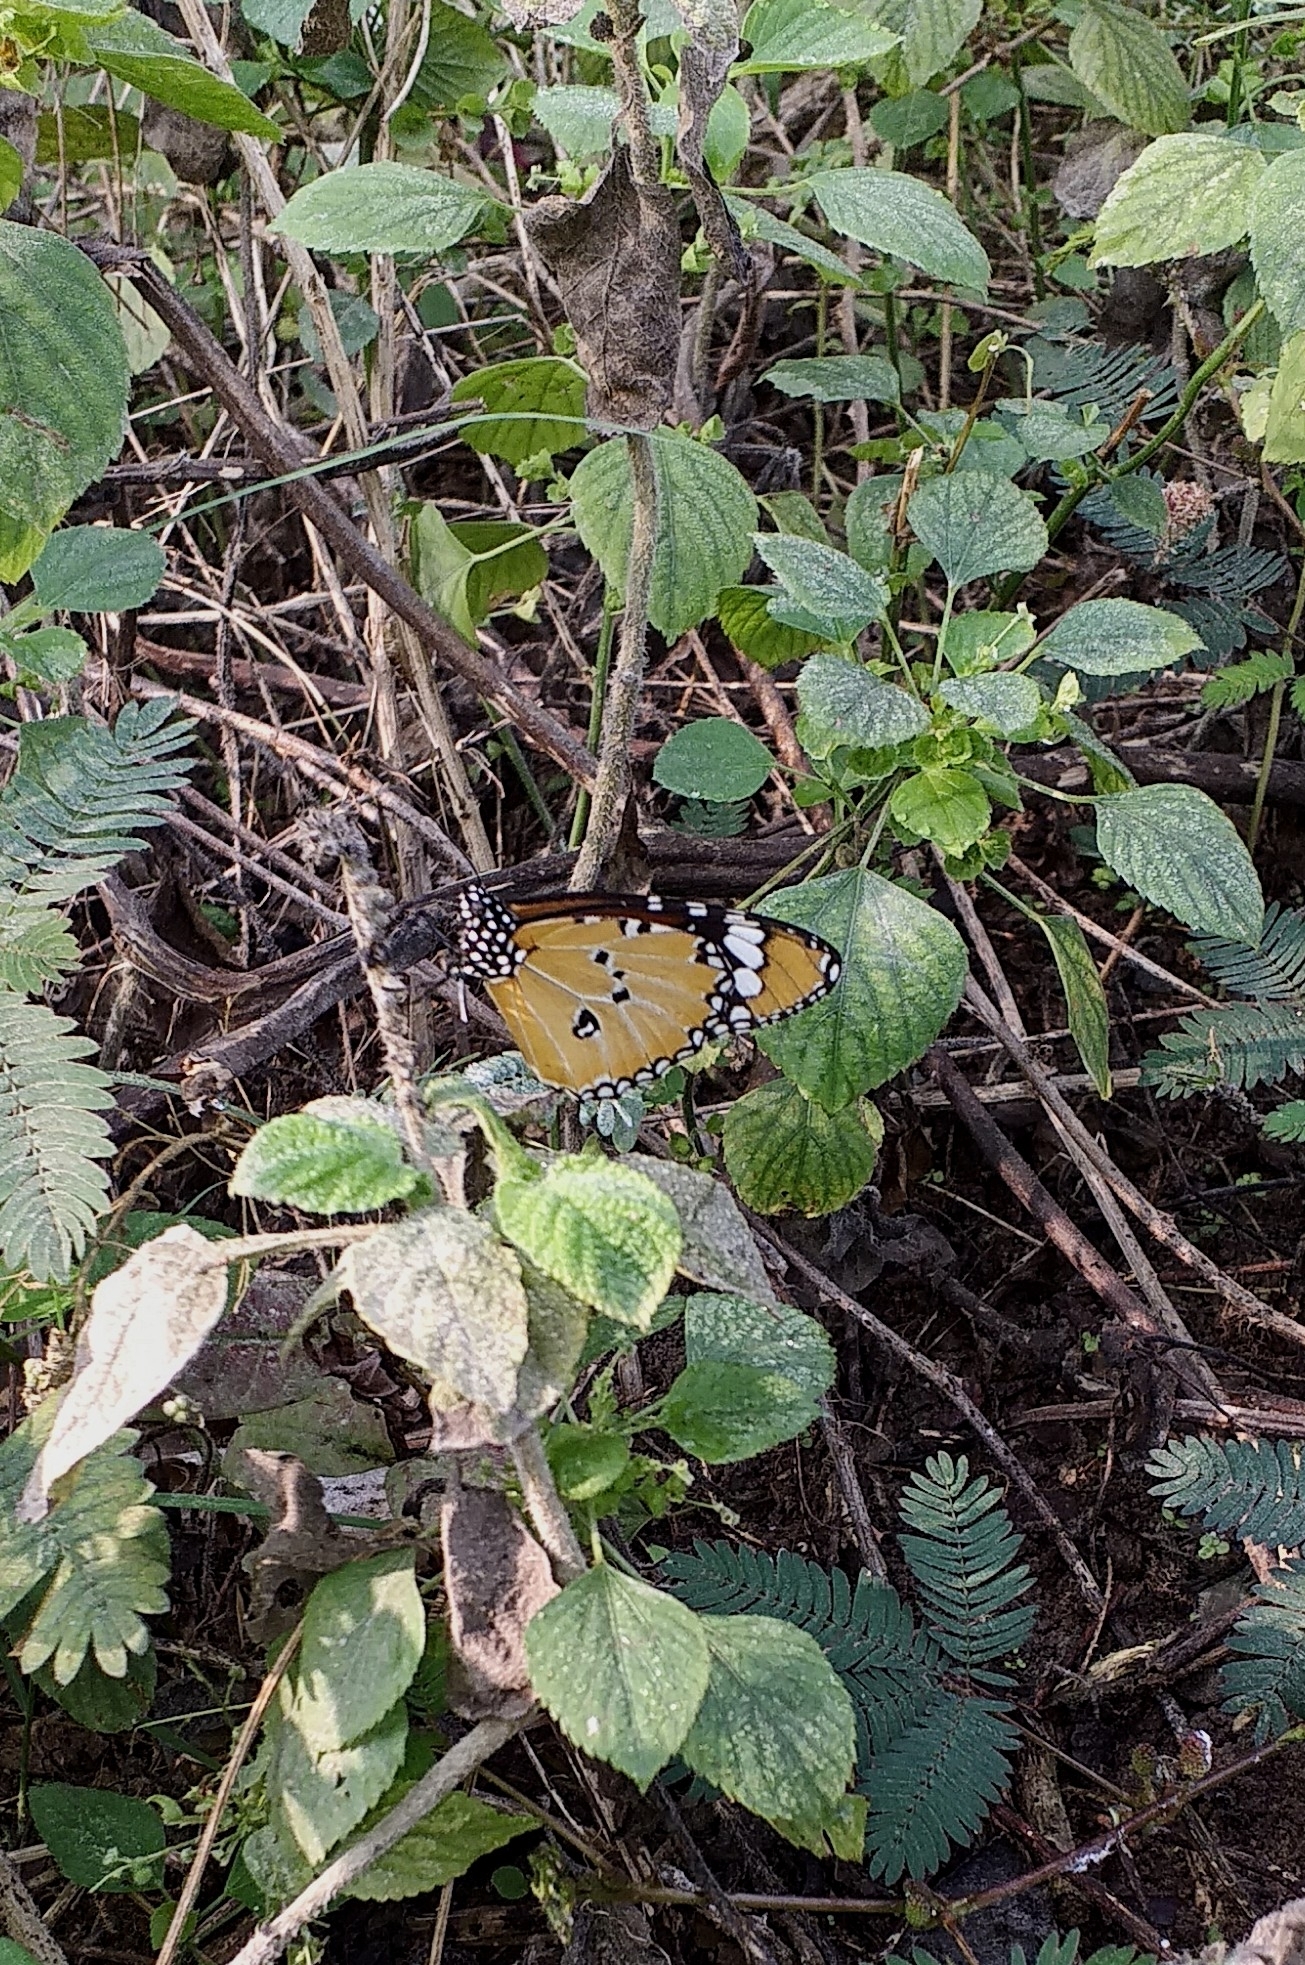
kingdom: Animalia
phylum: Arthropoda
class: Insecta
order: Lepidoptera
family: Nymphalidae
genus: Danaus
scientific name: Danaus chrysippus
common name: Plain tiger
